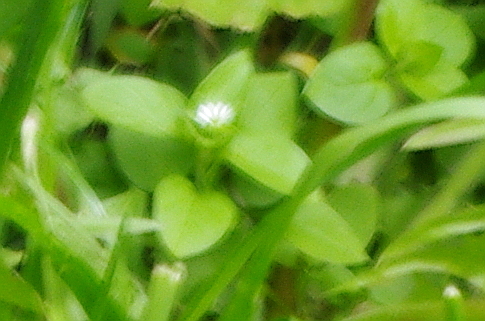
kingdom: Plantae
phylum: Tracheophyta
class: Magnoliopsida
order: Caryophyllales
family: Caryophyllaceae
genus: Stellaria
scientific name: Stellaria media
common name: Common chickweed
